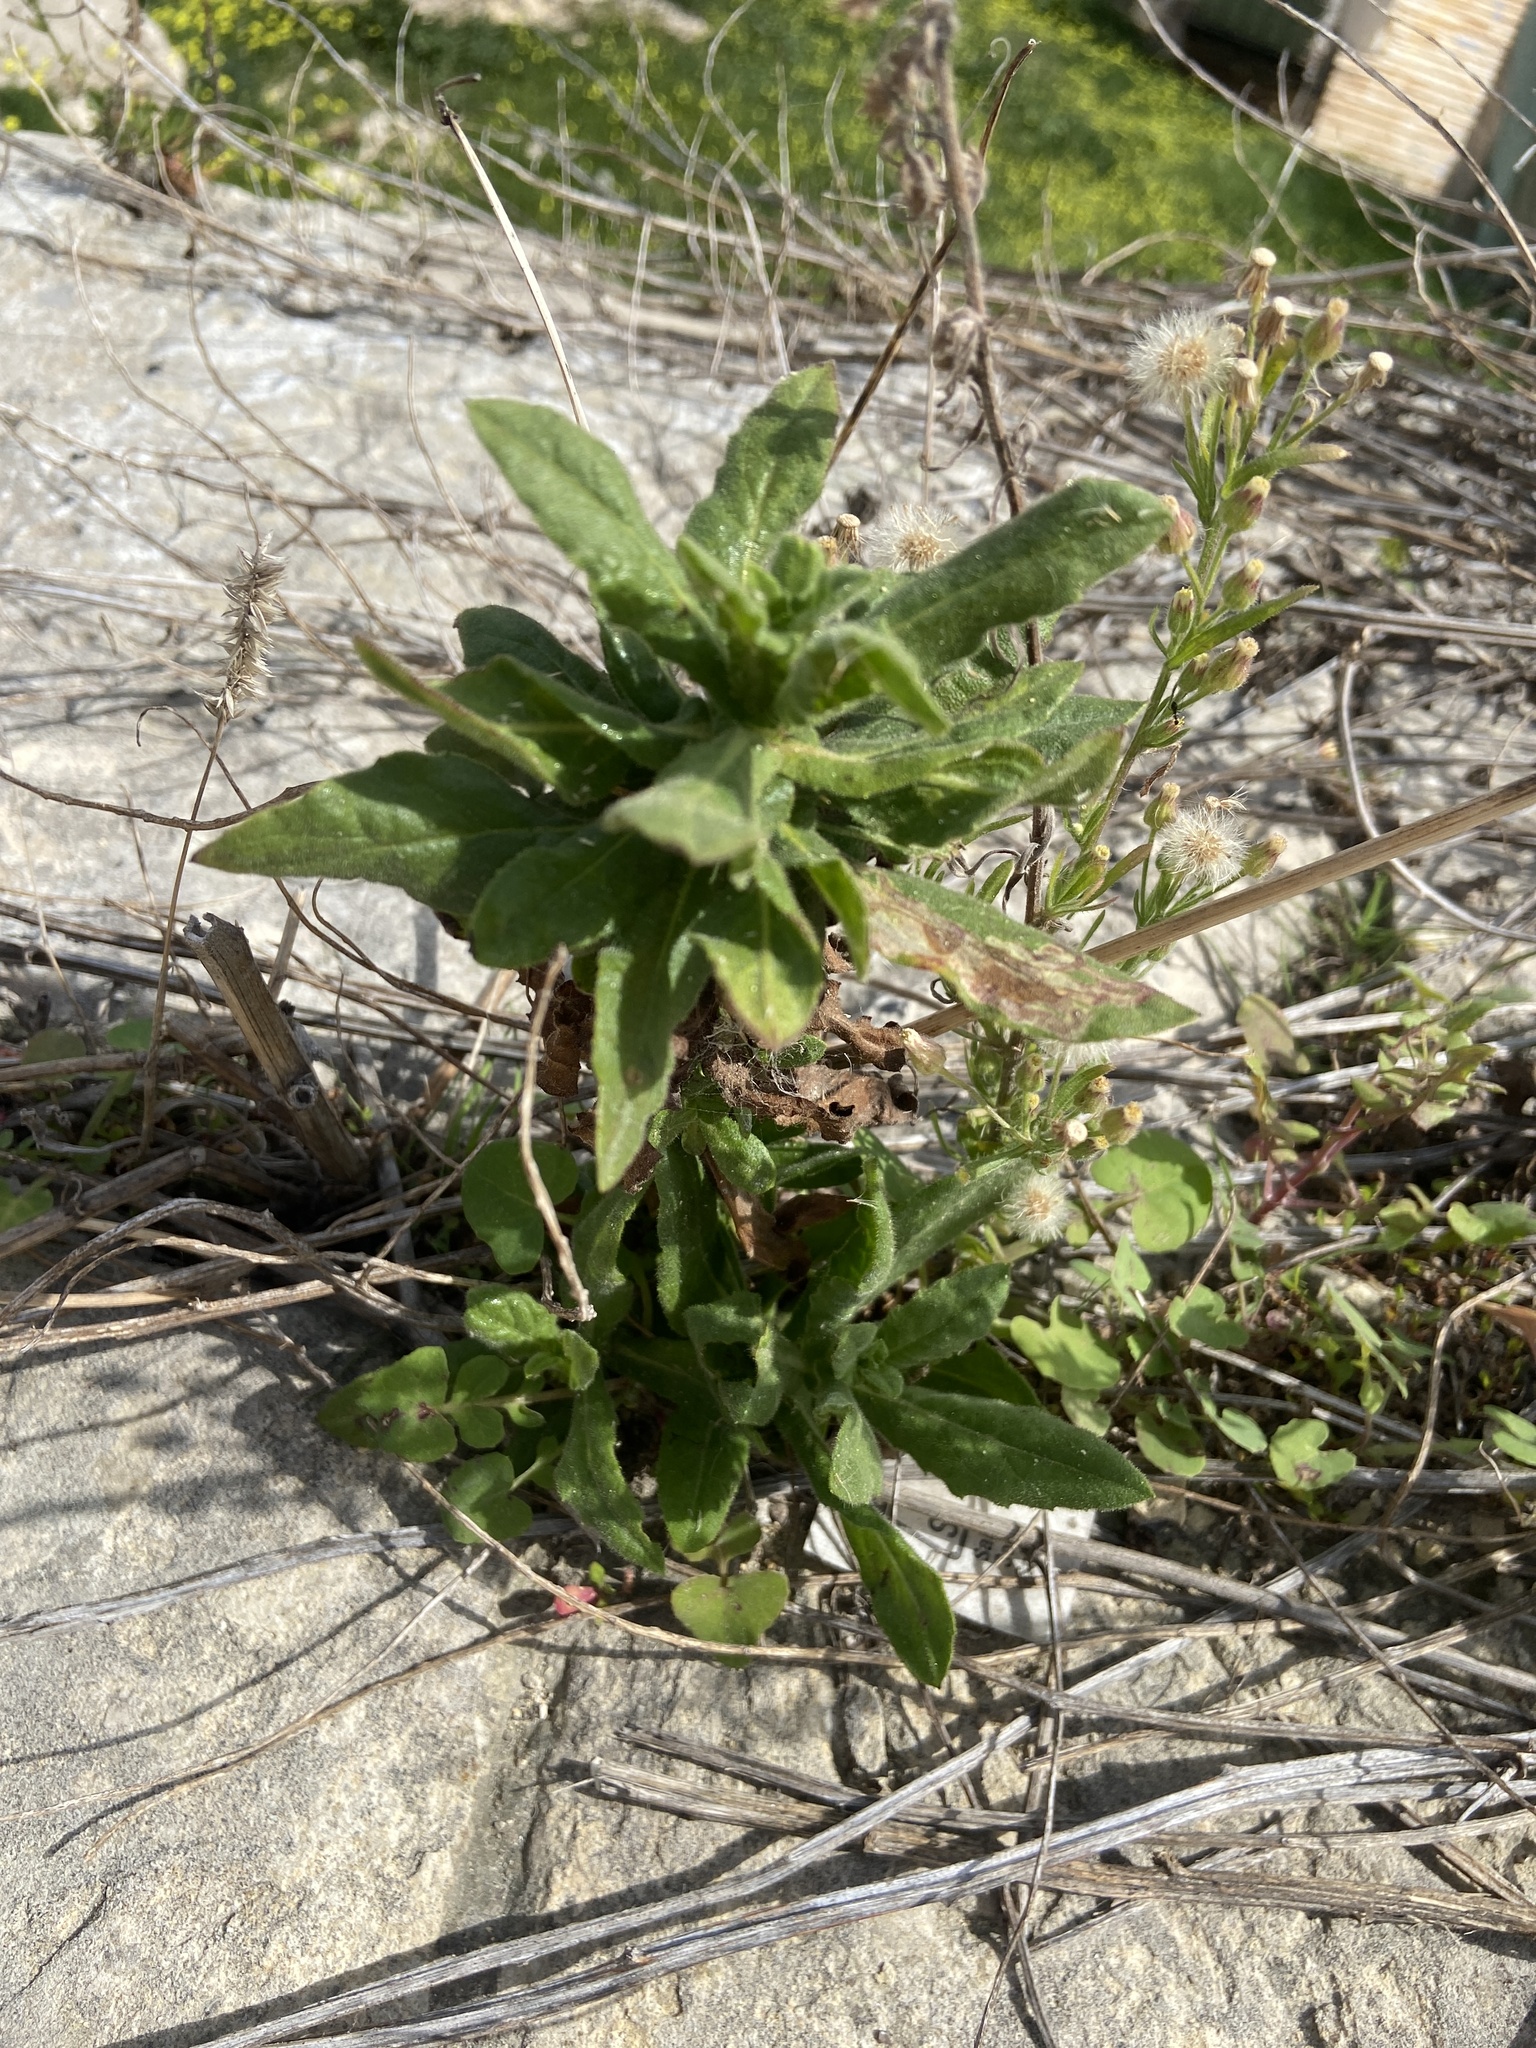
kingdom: Plantae
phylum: Tracheophyta
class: Magnoliopsida
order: Asterales
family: Asteraceae
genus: Dittrichia
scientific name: Dittrichia viscosa
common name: Woody fleabane
